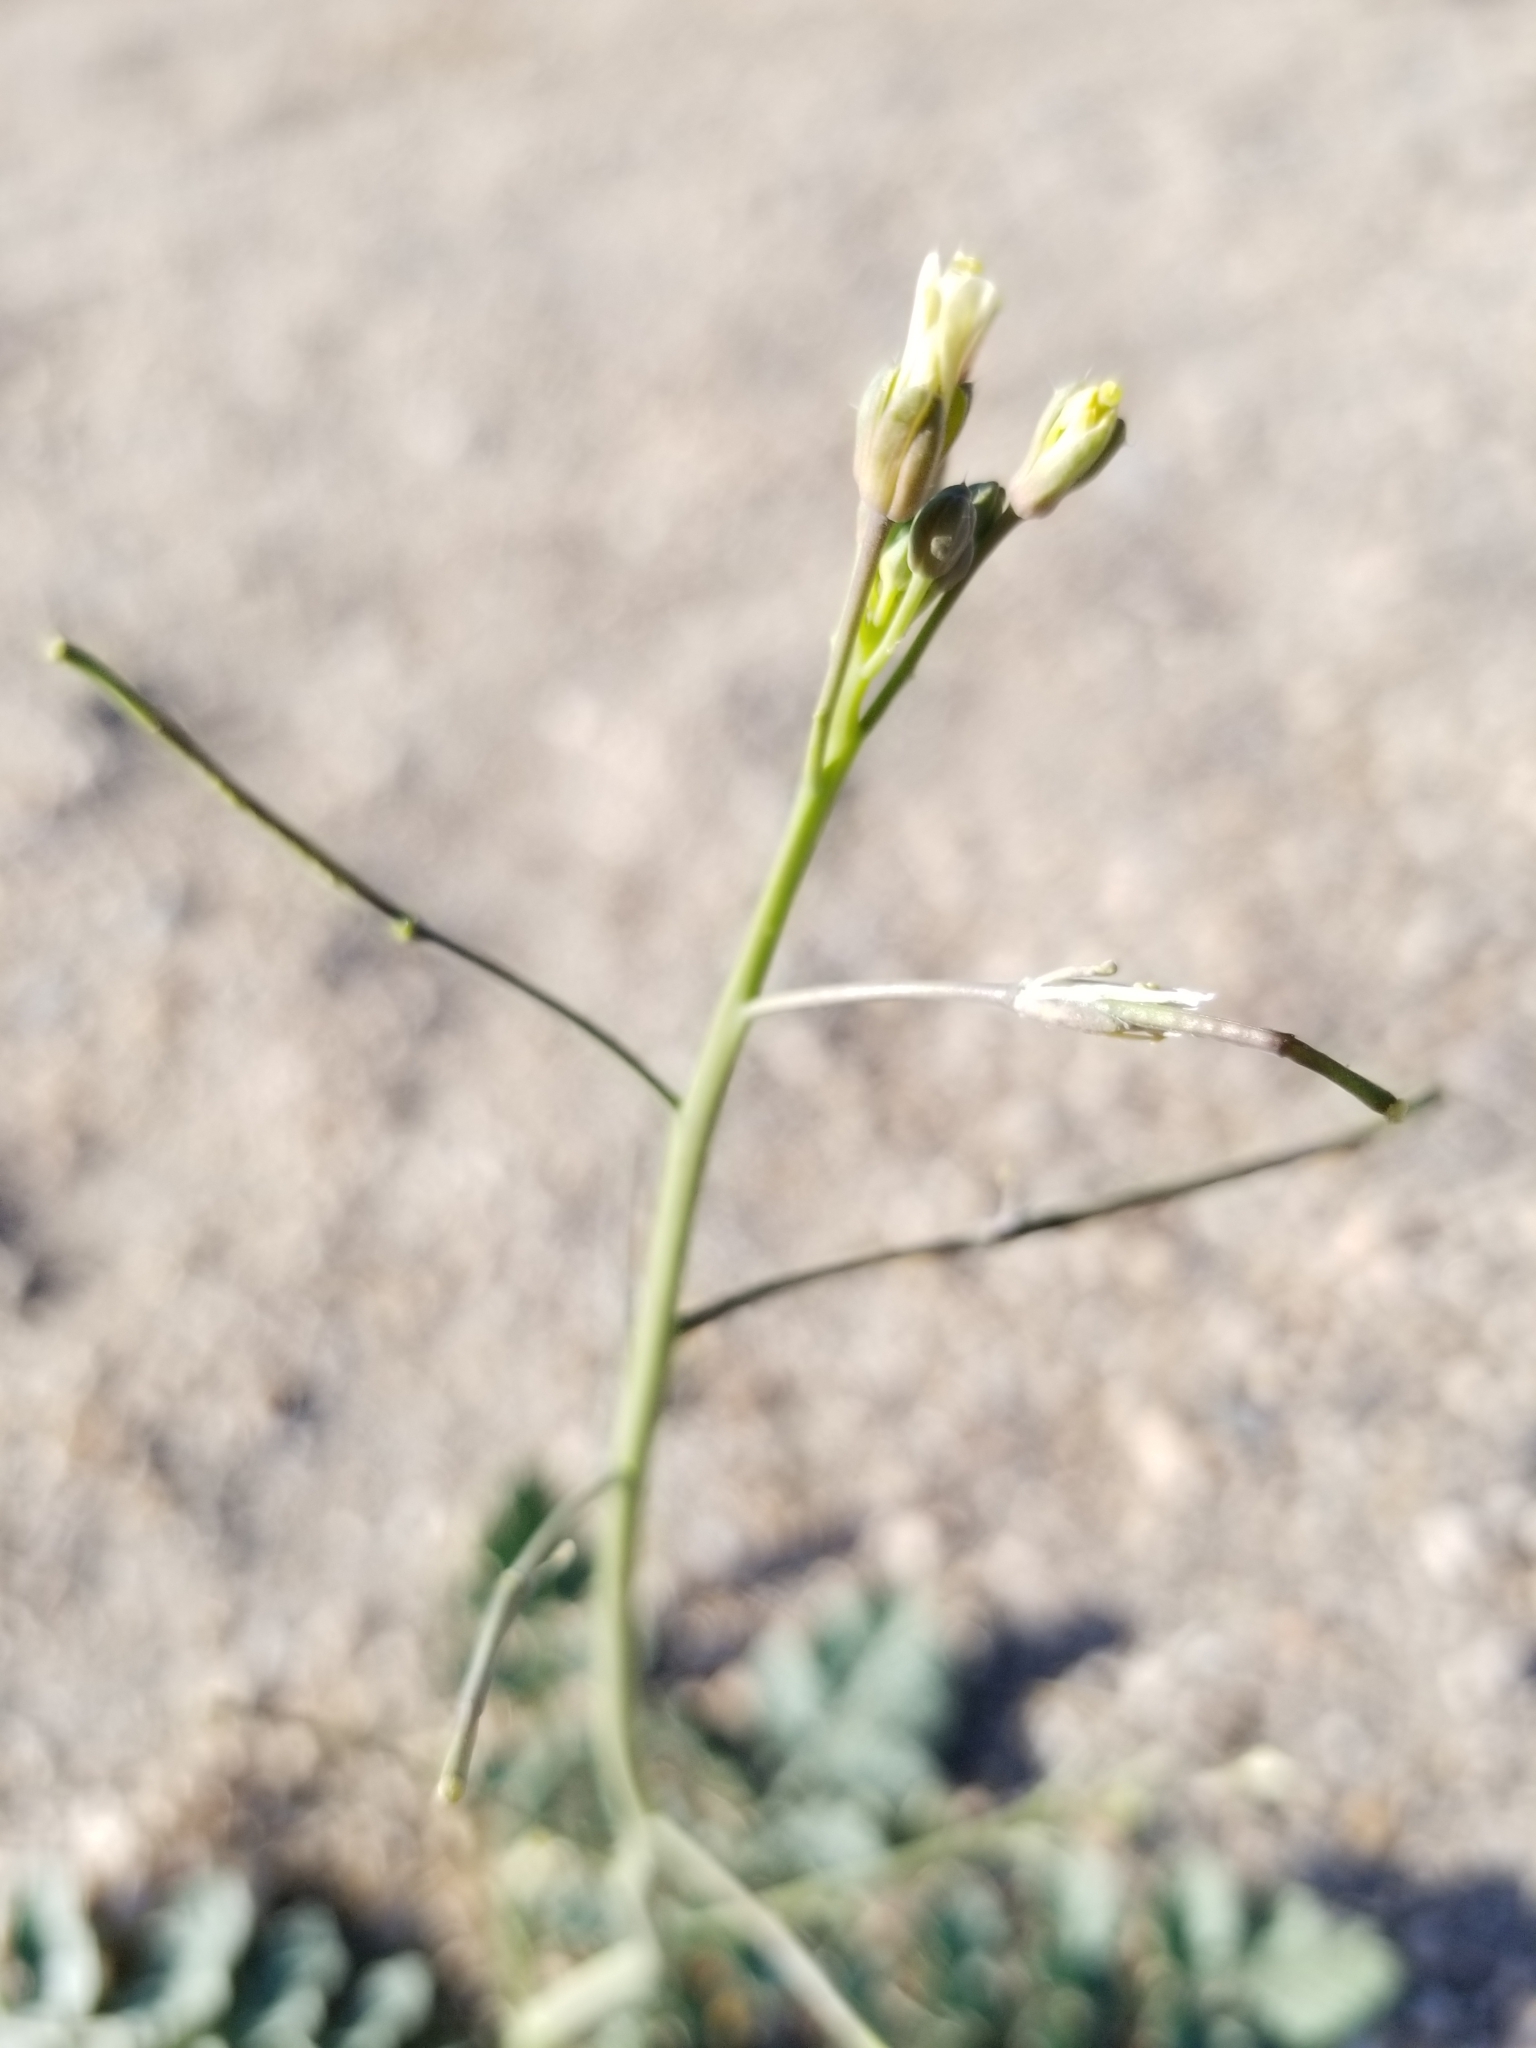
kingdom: Plantae
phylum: Tracheophyta
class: Magnoliopsida
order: Brassicales
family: Brassicaceae
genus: Brassica
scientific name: Brassica tournefortii
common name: Pale cabbage
